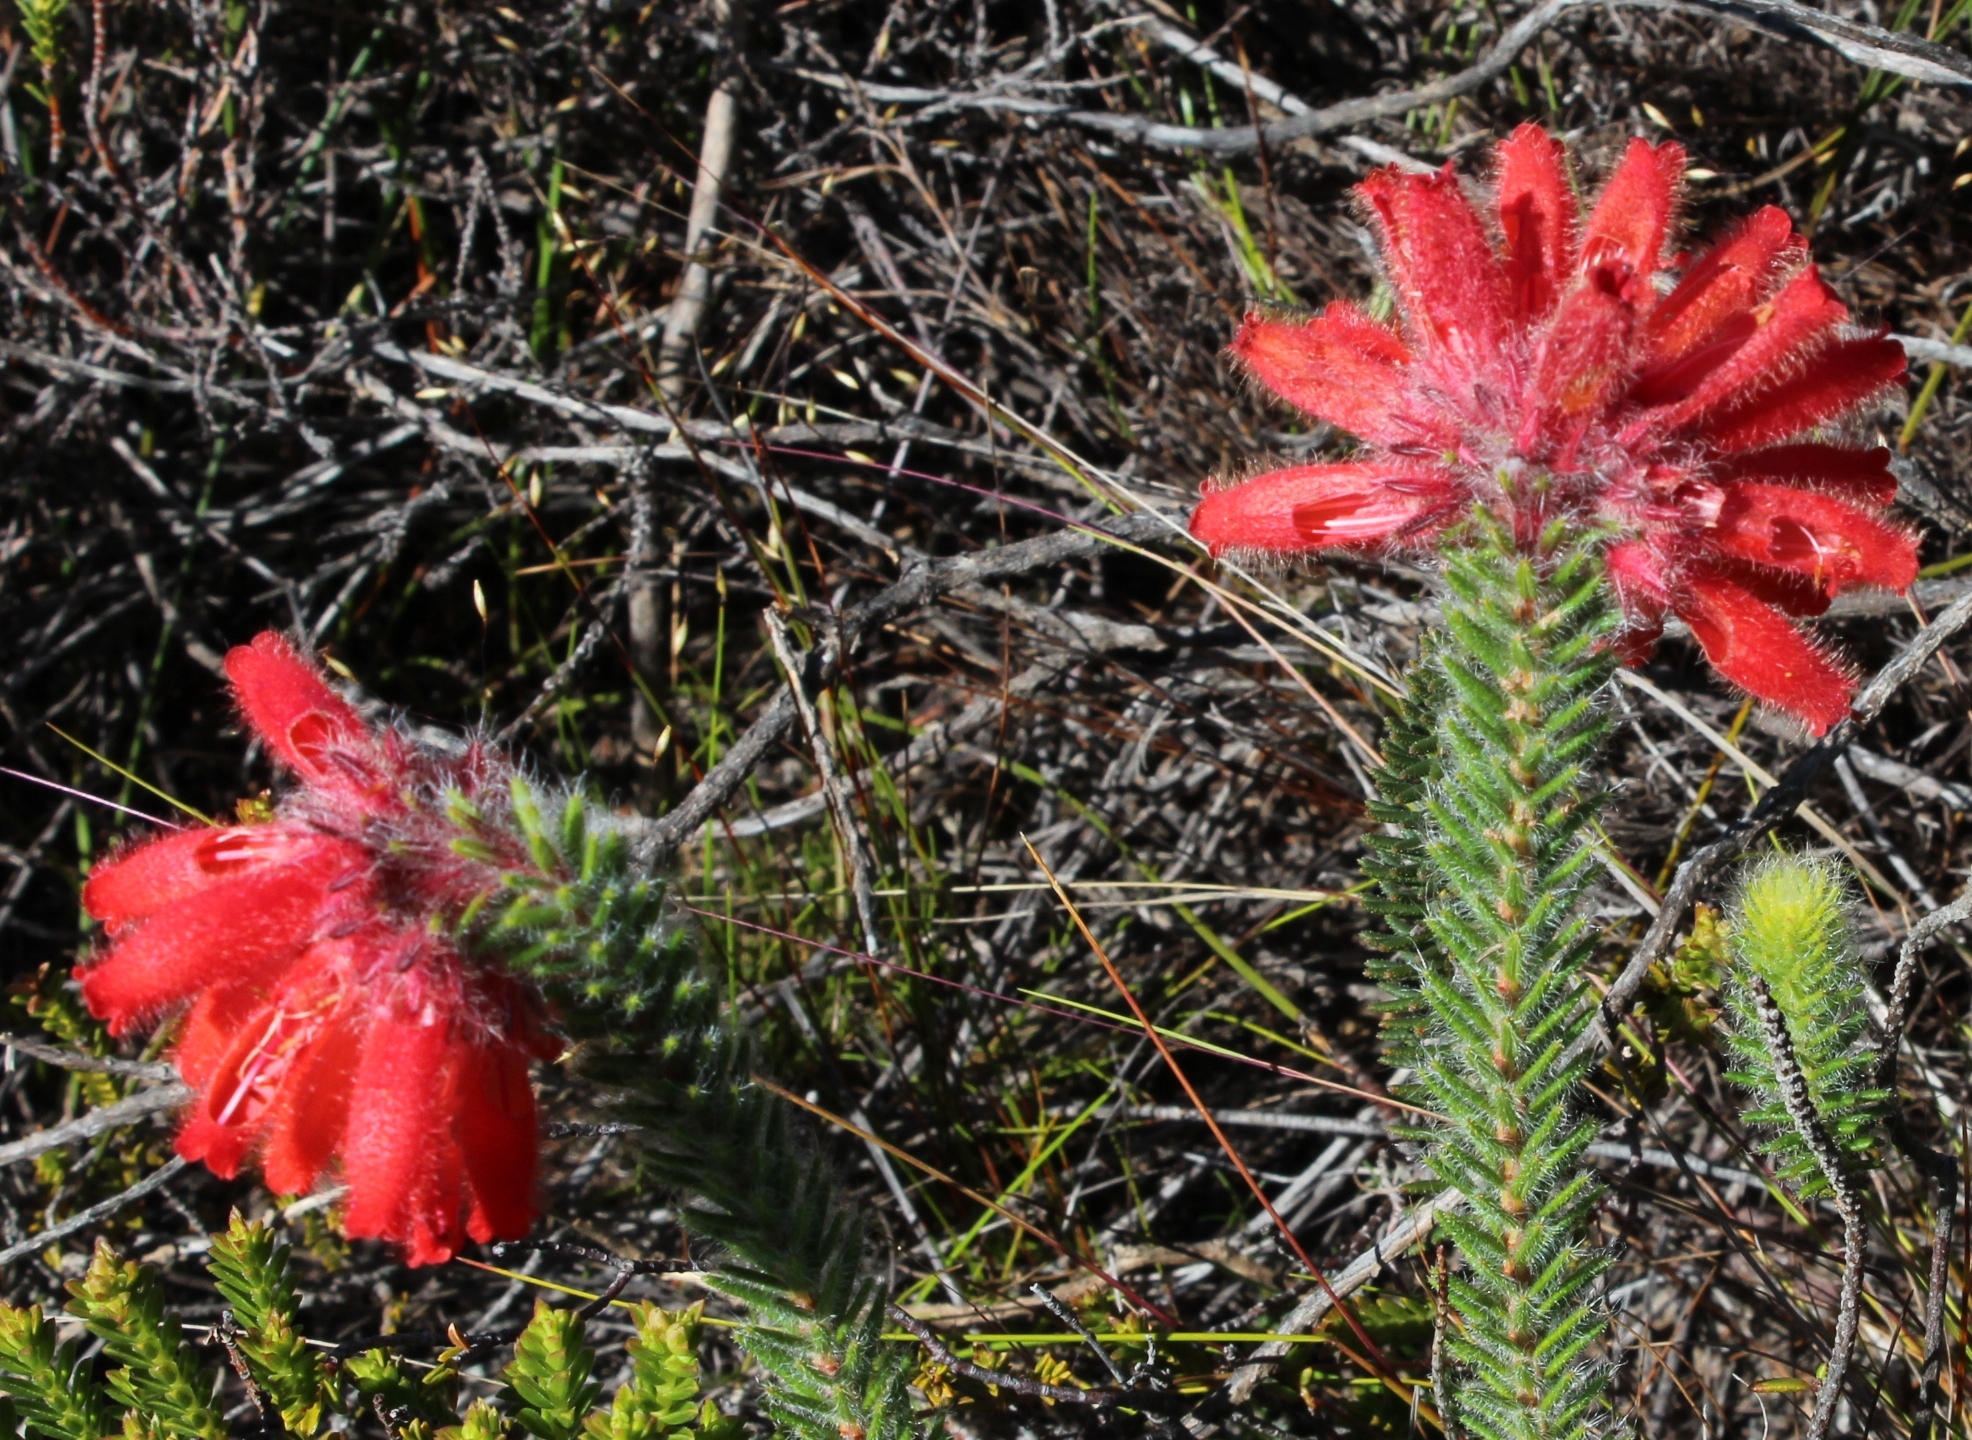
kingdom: Plantae
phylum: Tracheophyta
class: Magnoliopsida
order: Ericales
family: Ericaceae
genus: Erica
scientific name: Erica cerinthoides
